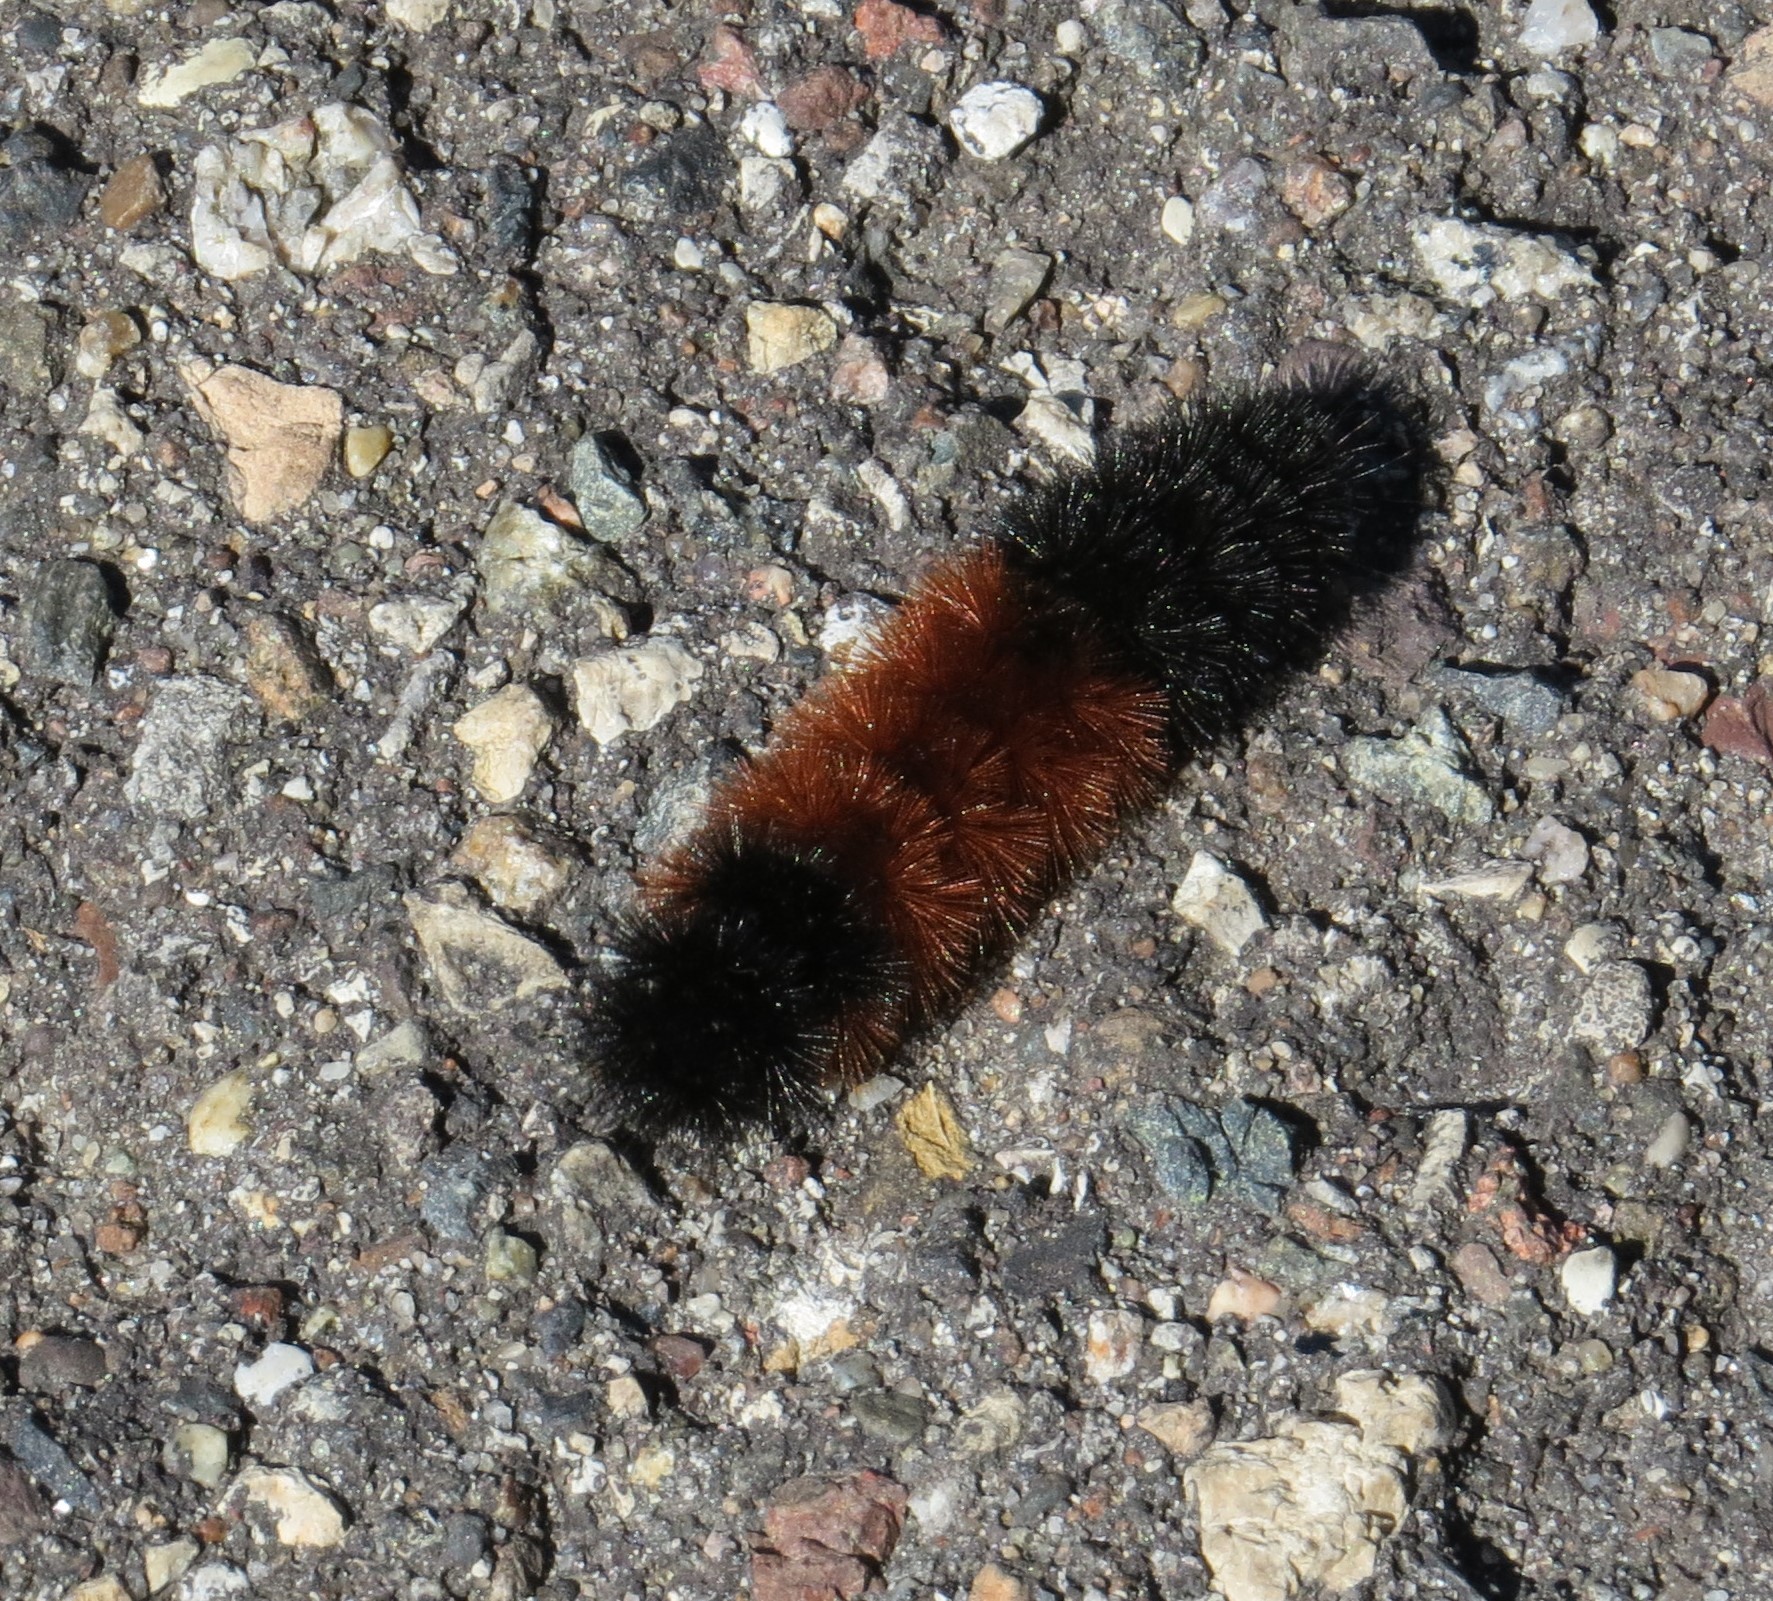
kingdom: Animalia
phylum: Arthropoda
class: Insecta
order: Lepidoptera
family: Erebidae
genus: Pyrrharctia
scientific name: Pyrrharctia isabella
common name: Isabella tiger moth
